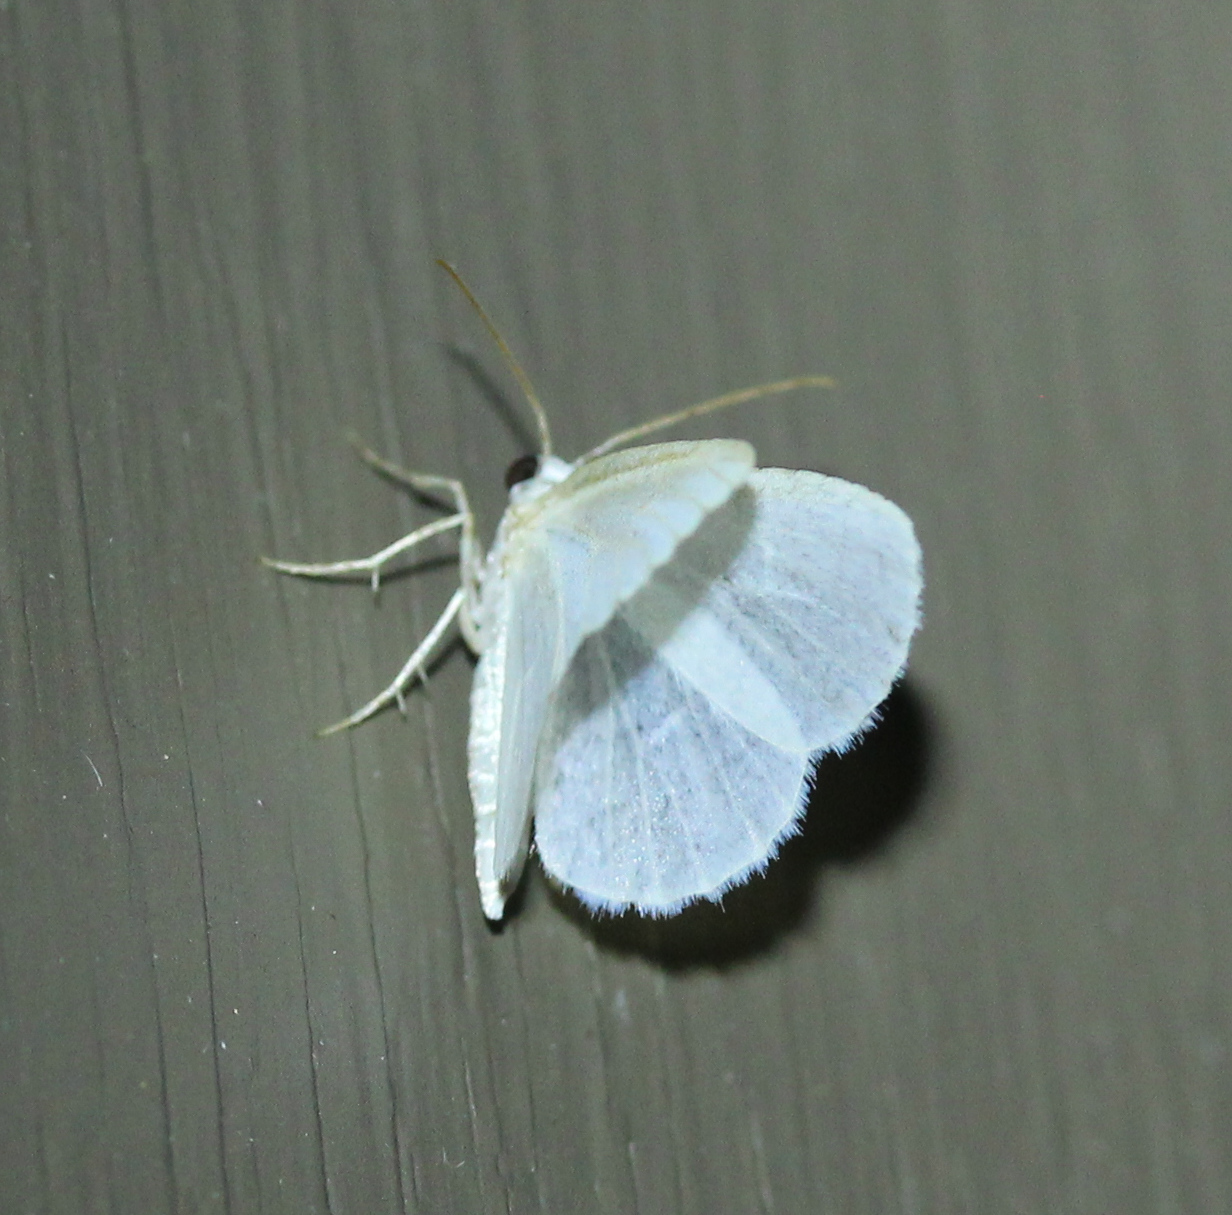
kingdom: Animalia
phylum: Arthropoda
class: Insecta
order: Lepidoptera
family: Geometridae
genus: Lomographa
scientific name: Lomographa vestaliata
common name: White spring moth
